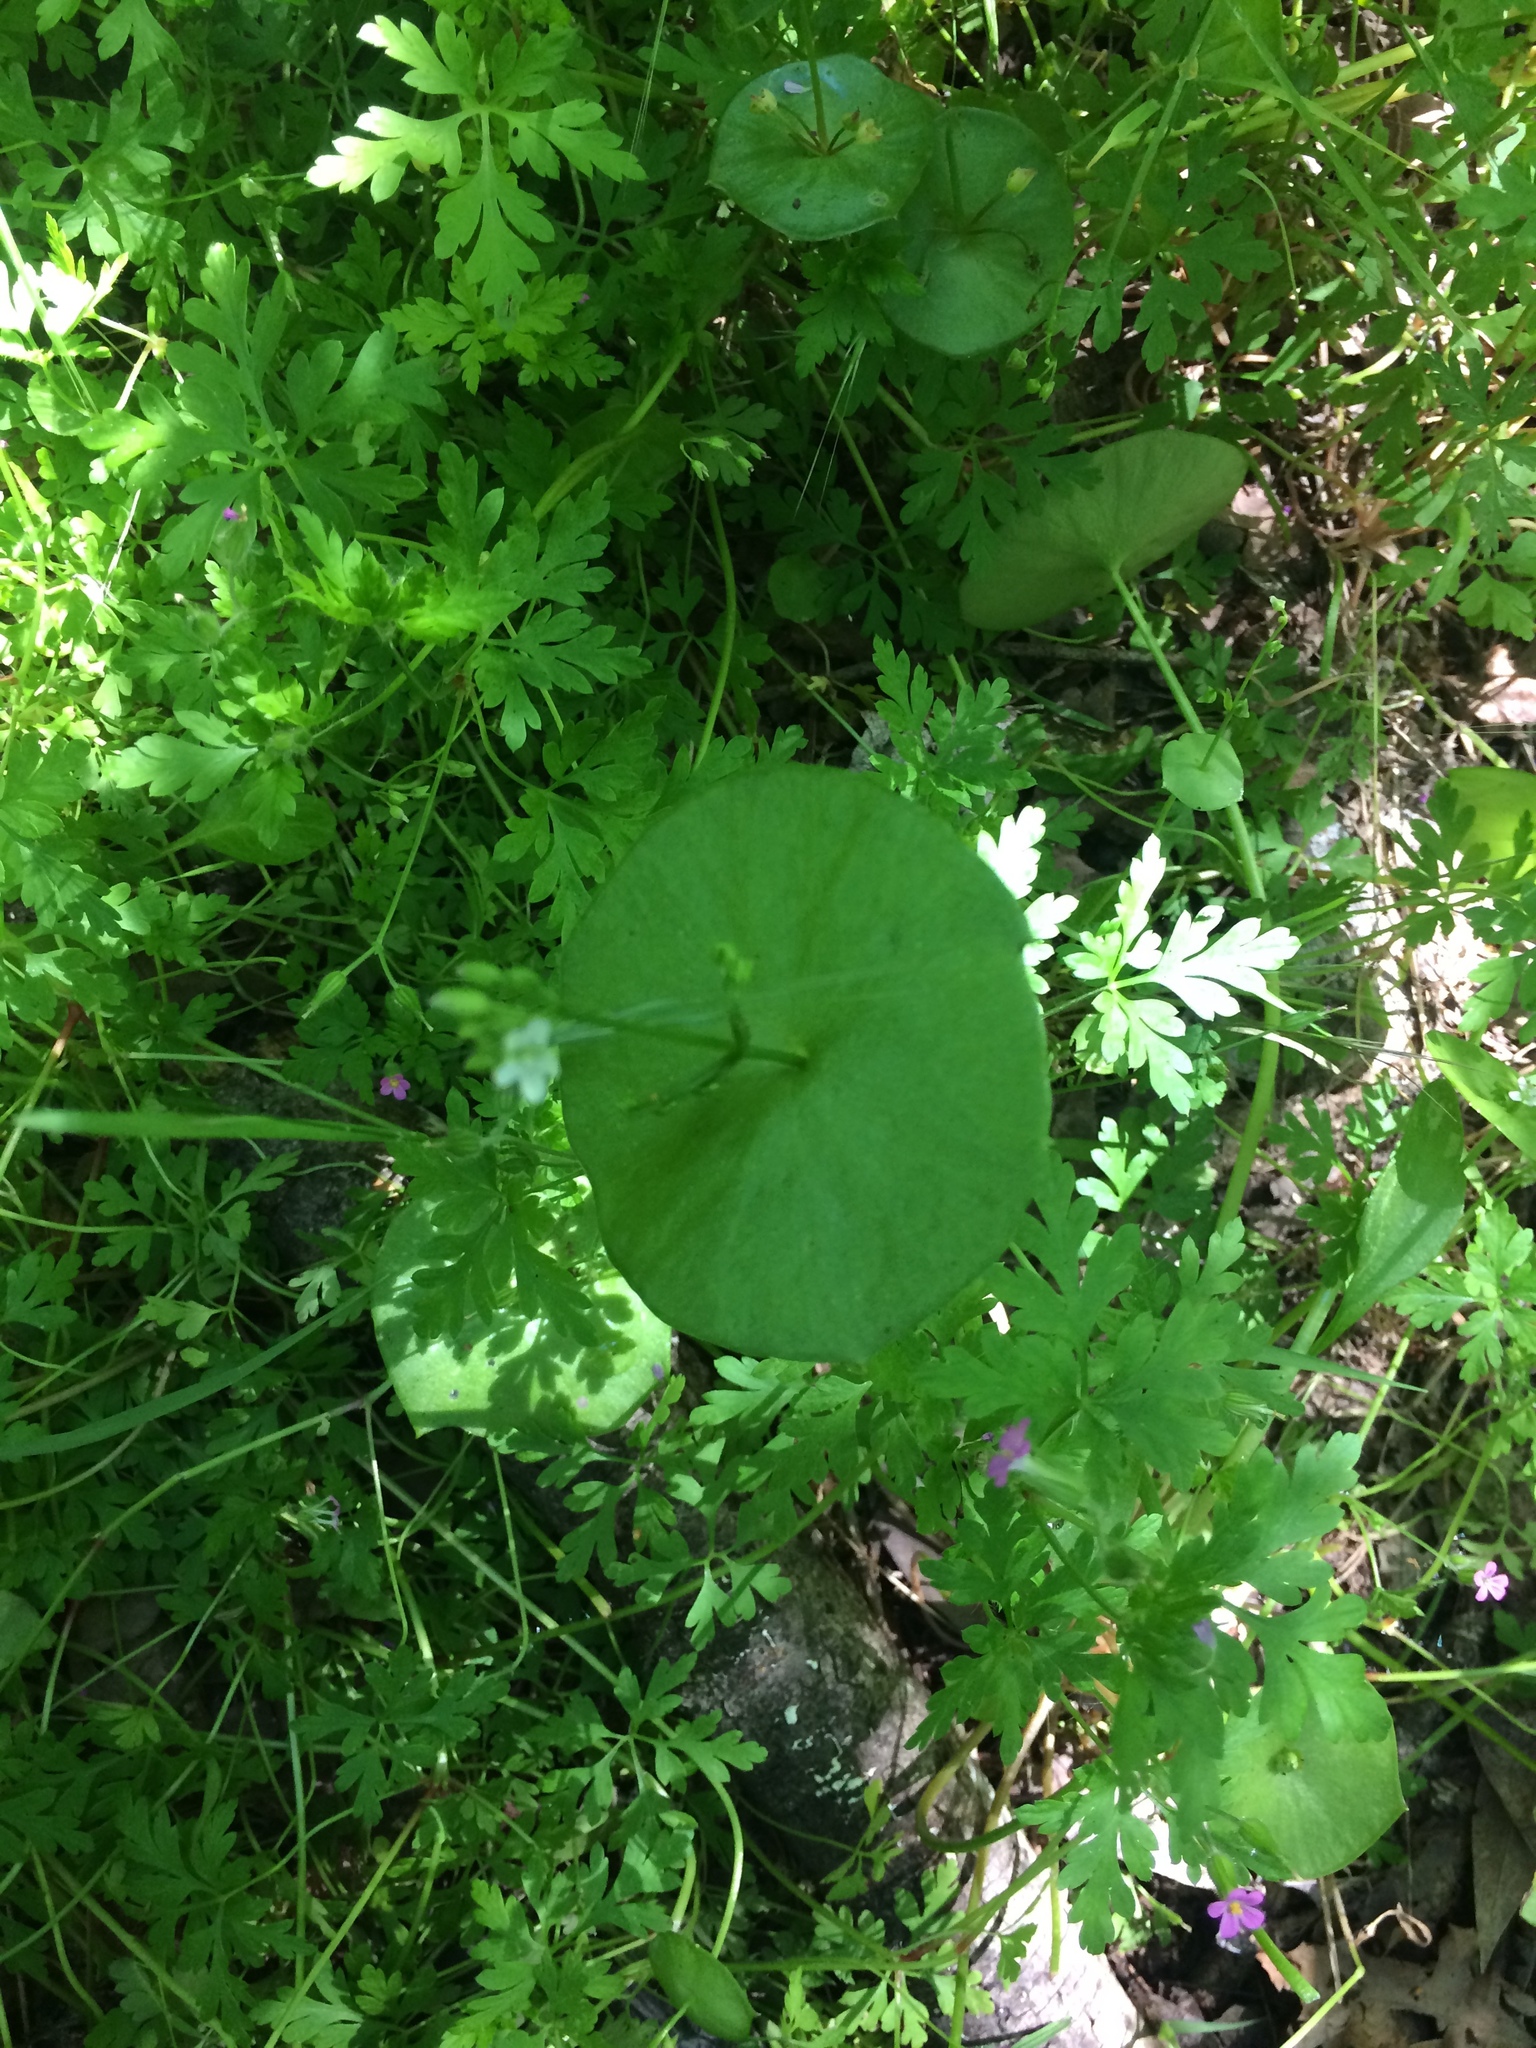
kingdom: Plantae
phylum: Tracheophyta
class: Magnoliopsida
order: Caryophyllales
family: Montiaceae
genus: Claytonia
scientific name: Claytonia perfoliata
